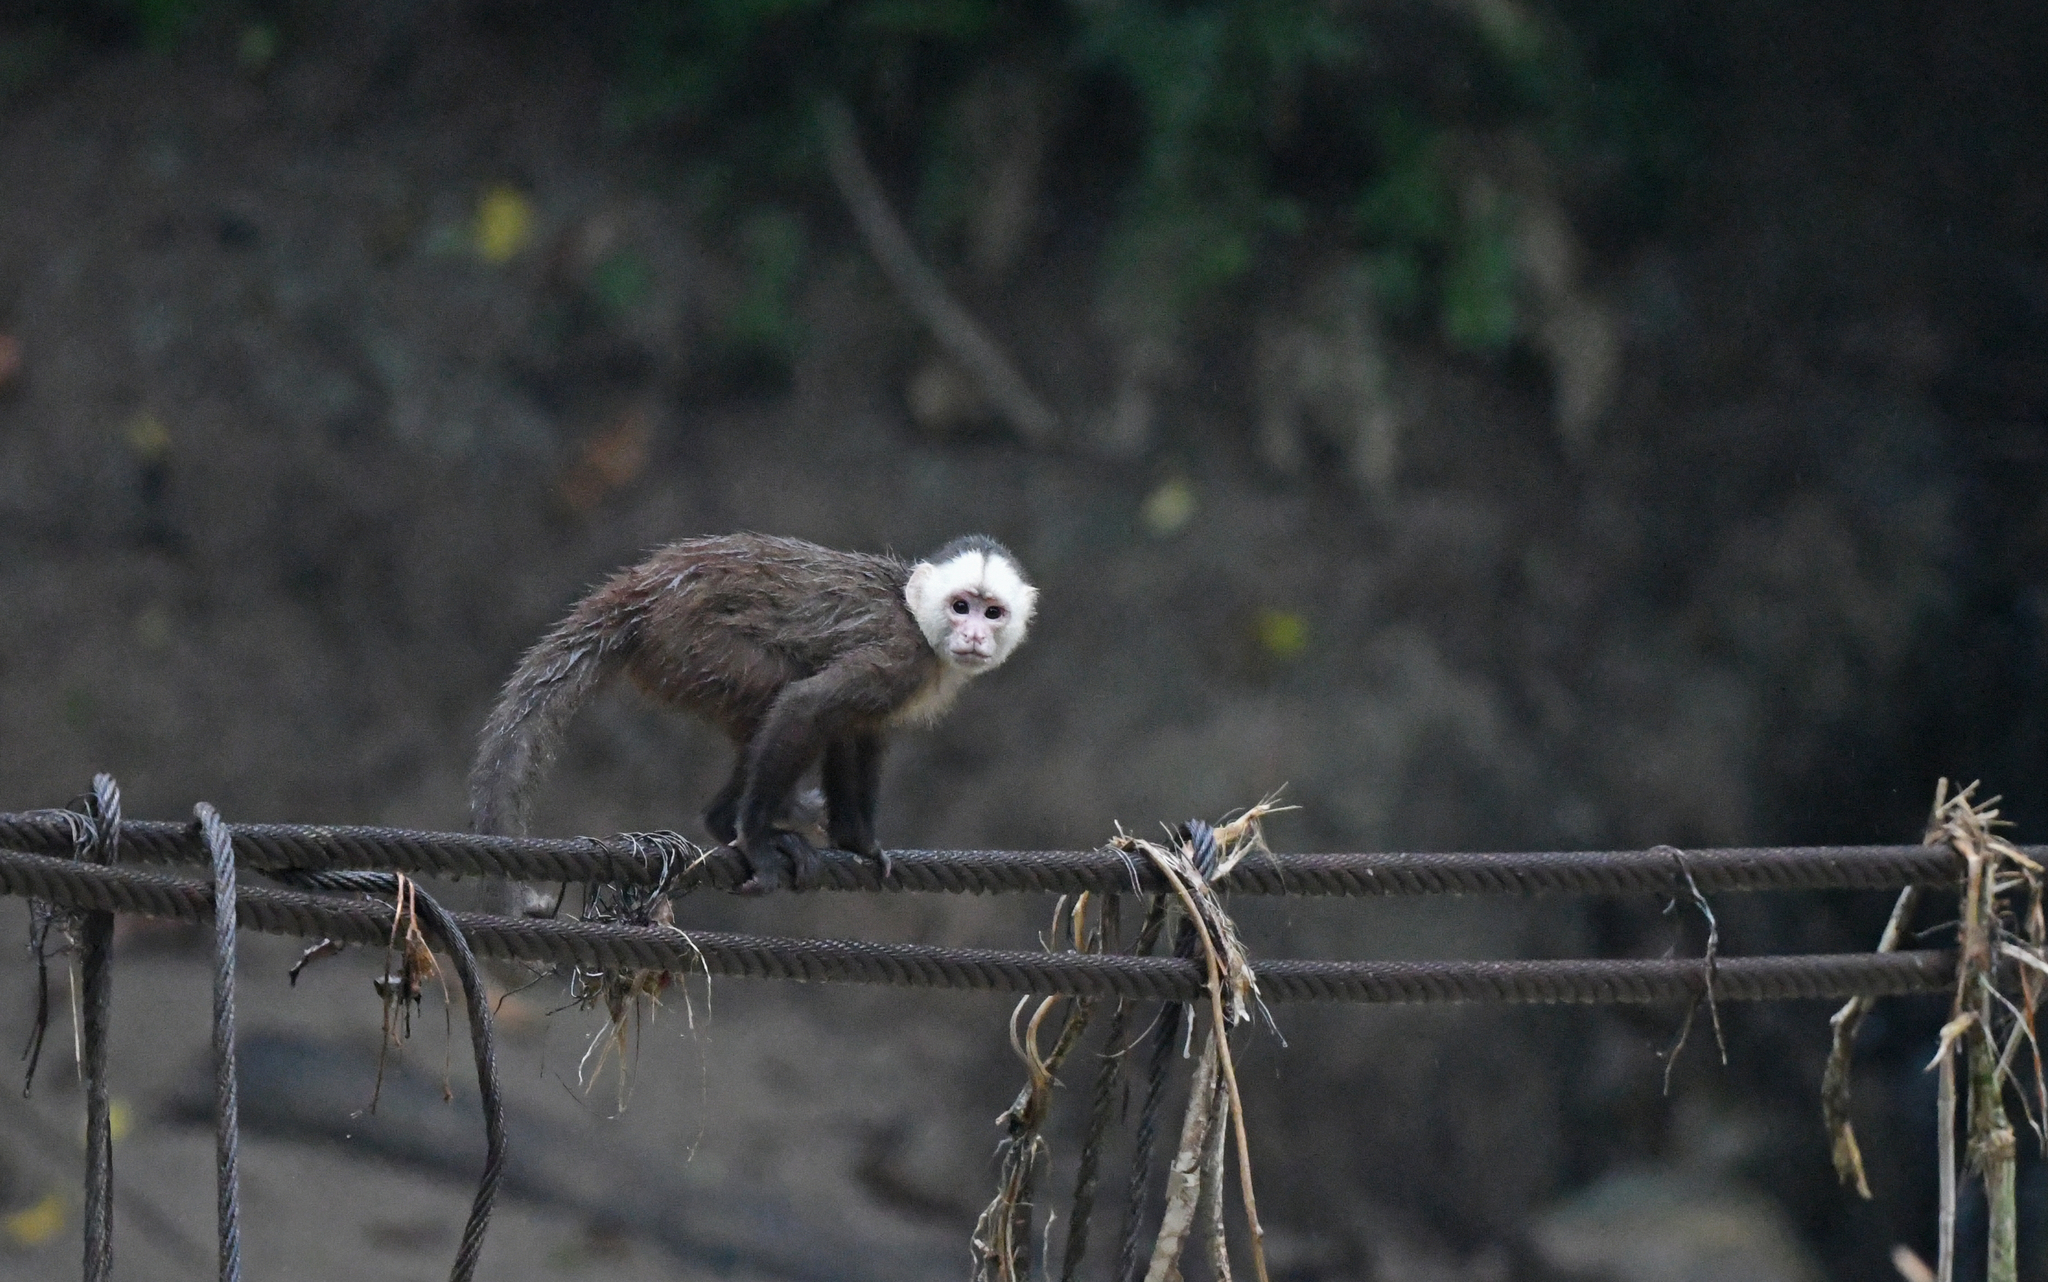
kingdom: Animalia
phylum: Chordata
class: Mammalia
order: Primates
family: Cebidae
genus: Cebus
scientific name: Cebus versicolor
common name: Varied capuchin
